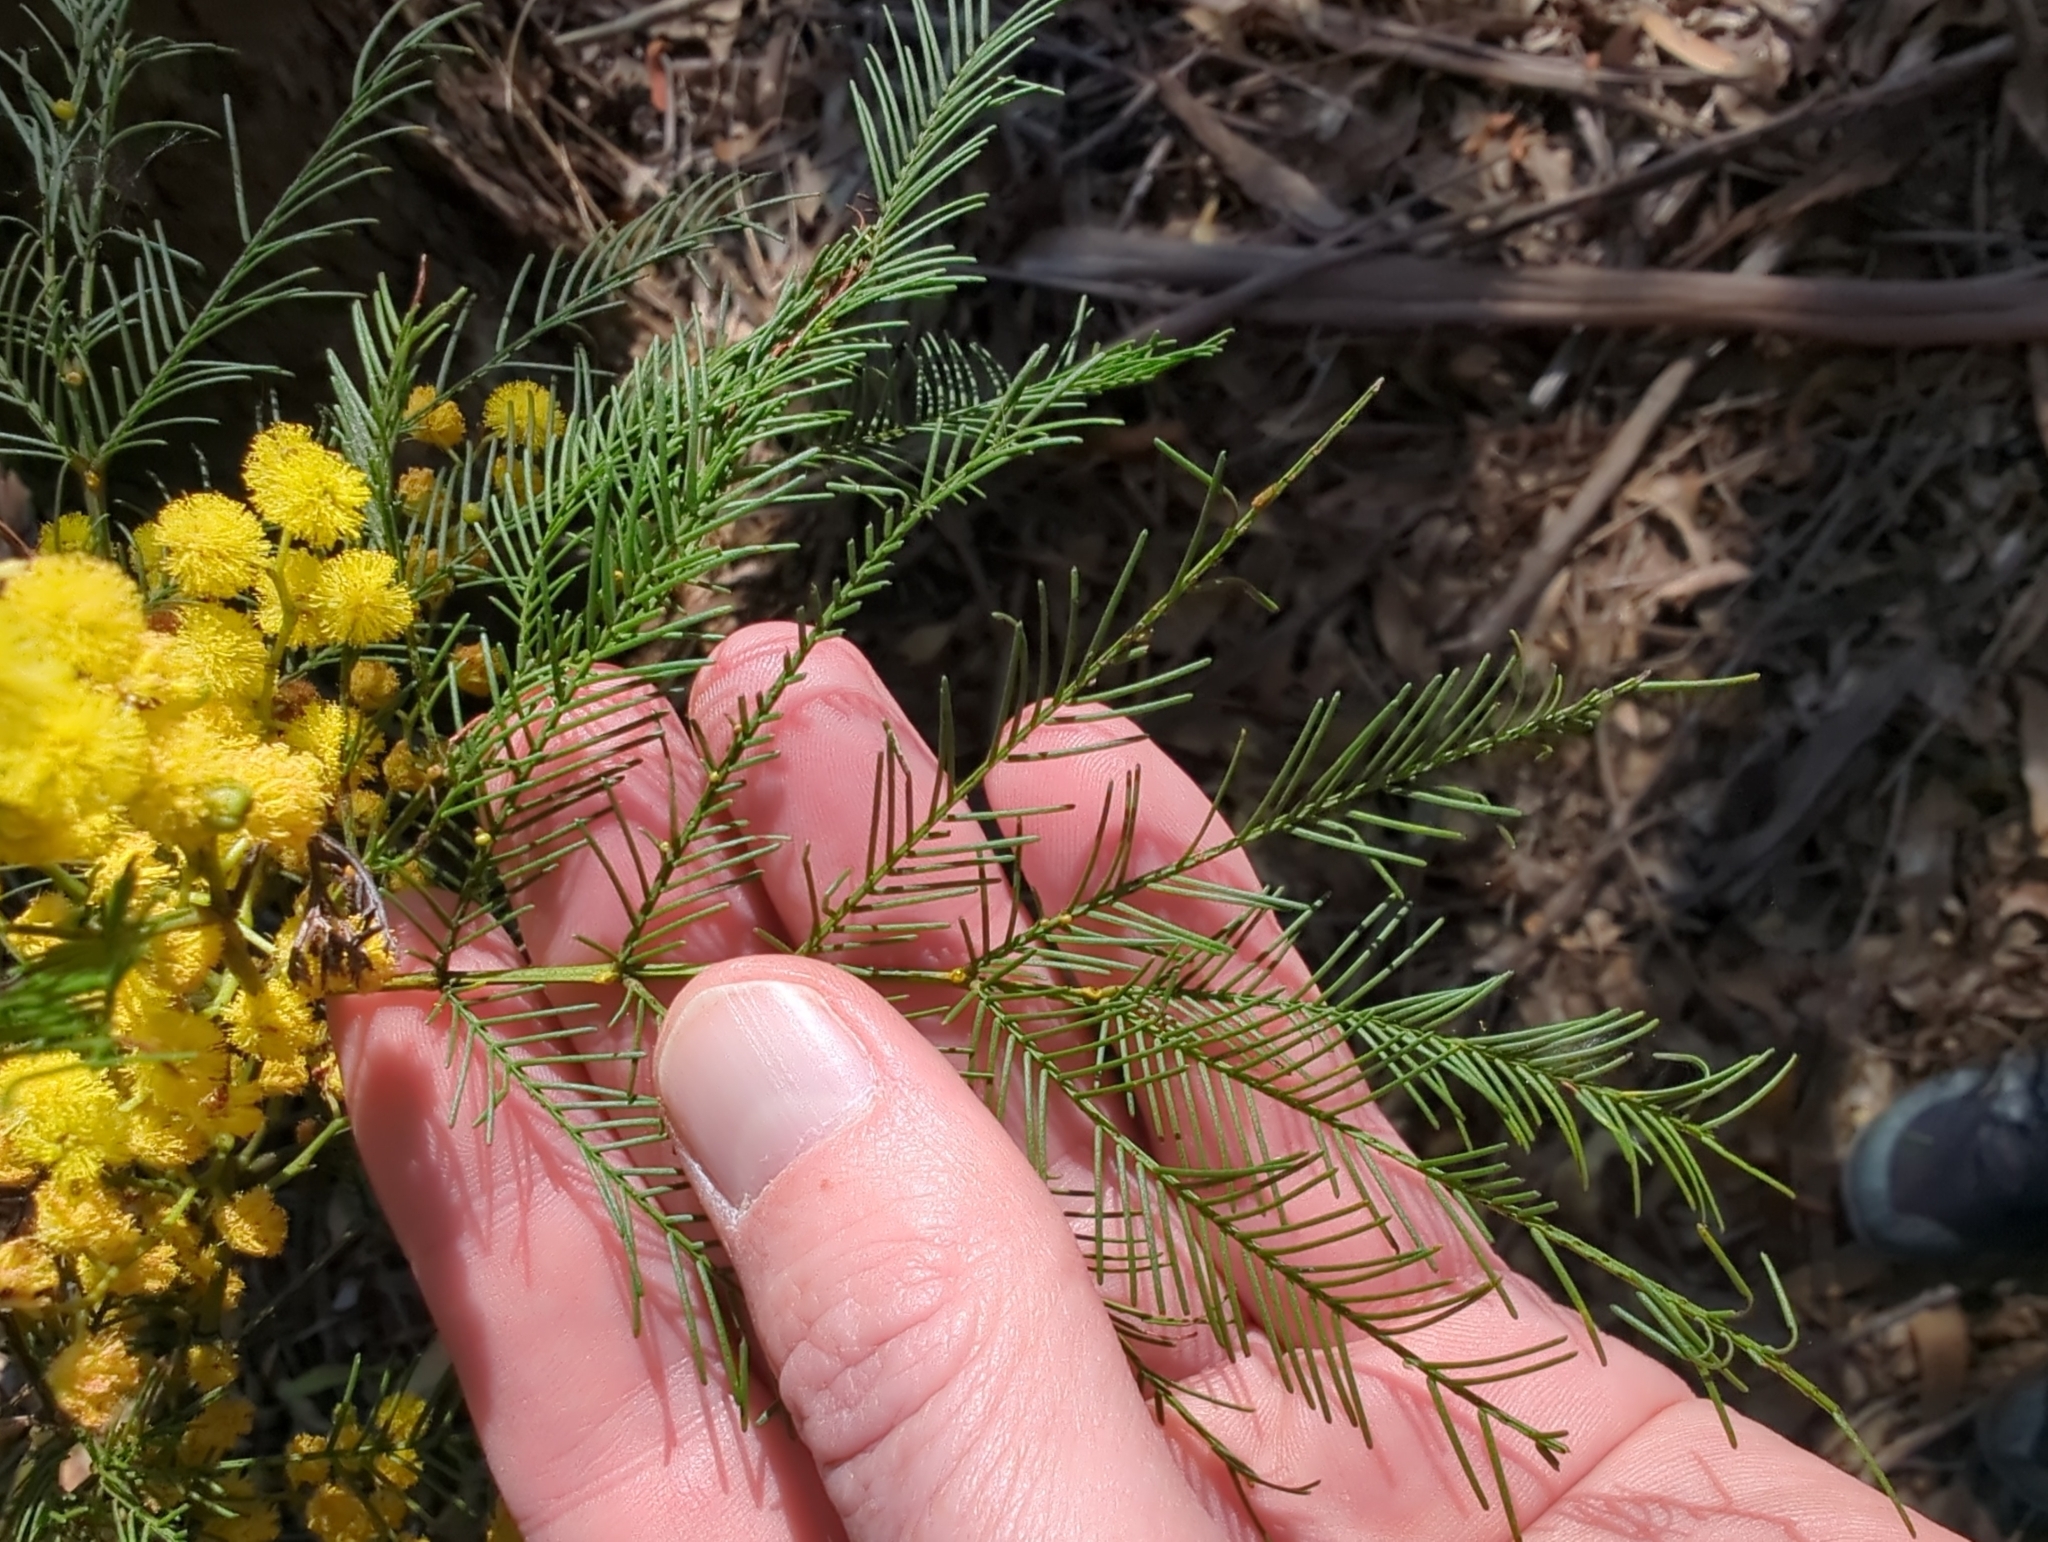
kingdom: Plantae
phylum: Tracheophyta
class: Magnoliopsida
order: Fabales
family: Fabaceae
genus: Acacia
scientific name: Acacia decurrens
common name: Green wattle
